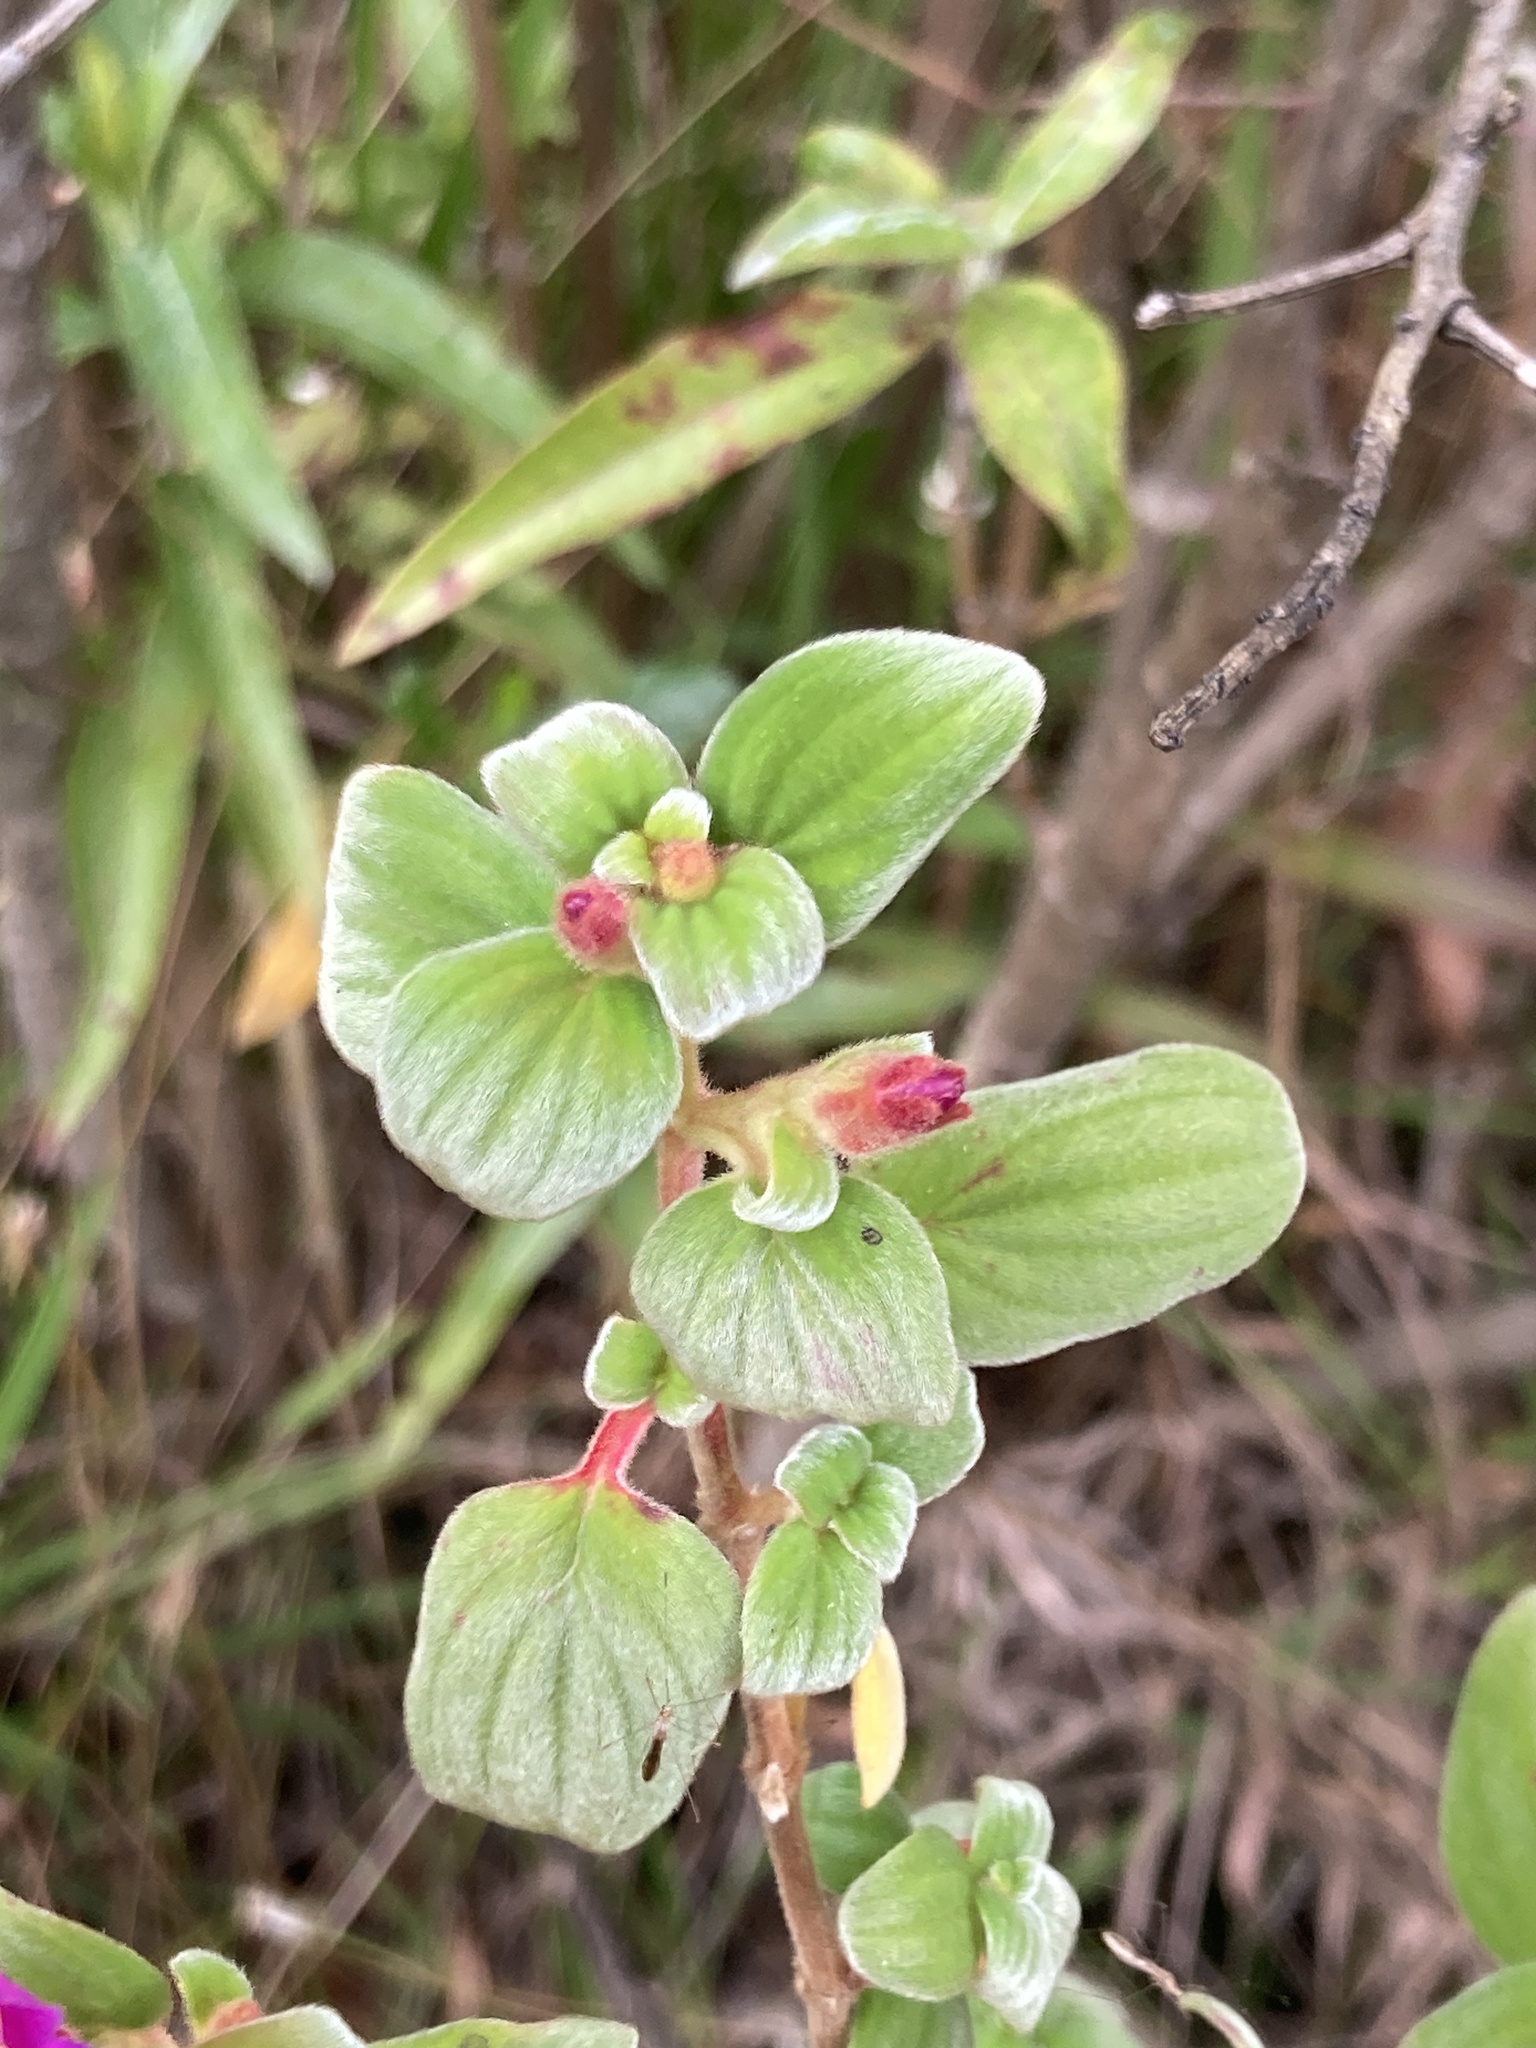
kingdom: Plantae
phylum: Tracheophyta
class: Magnoliopsida
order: Myrtales
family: Melastomataceae
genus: Monochaetum
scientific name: Monochaetum bonplandii
